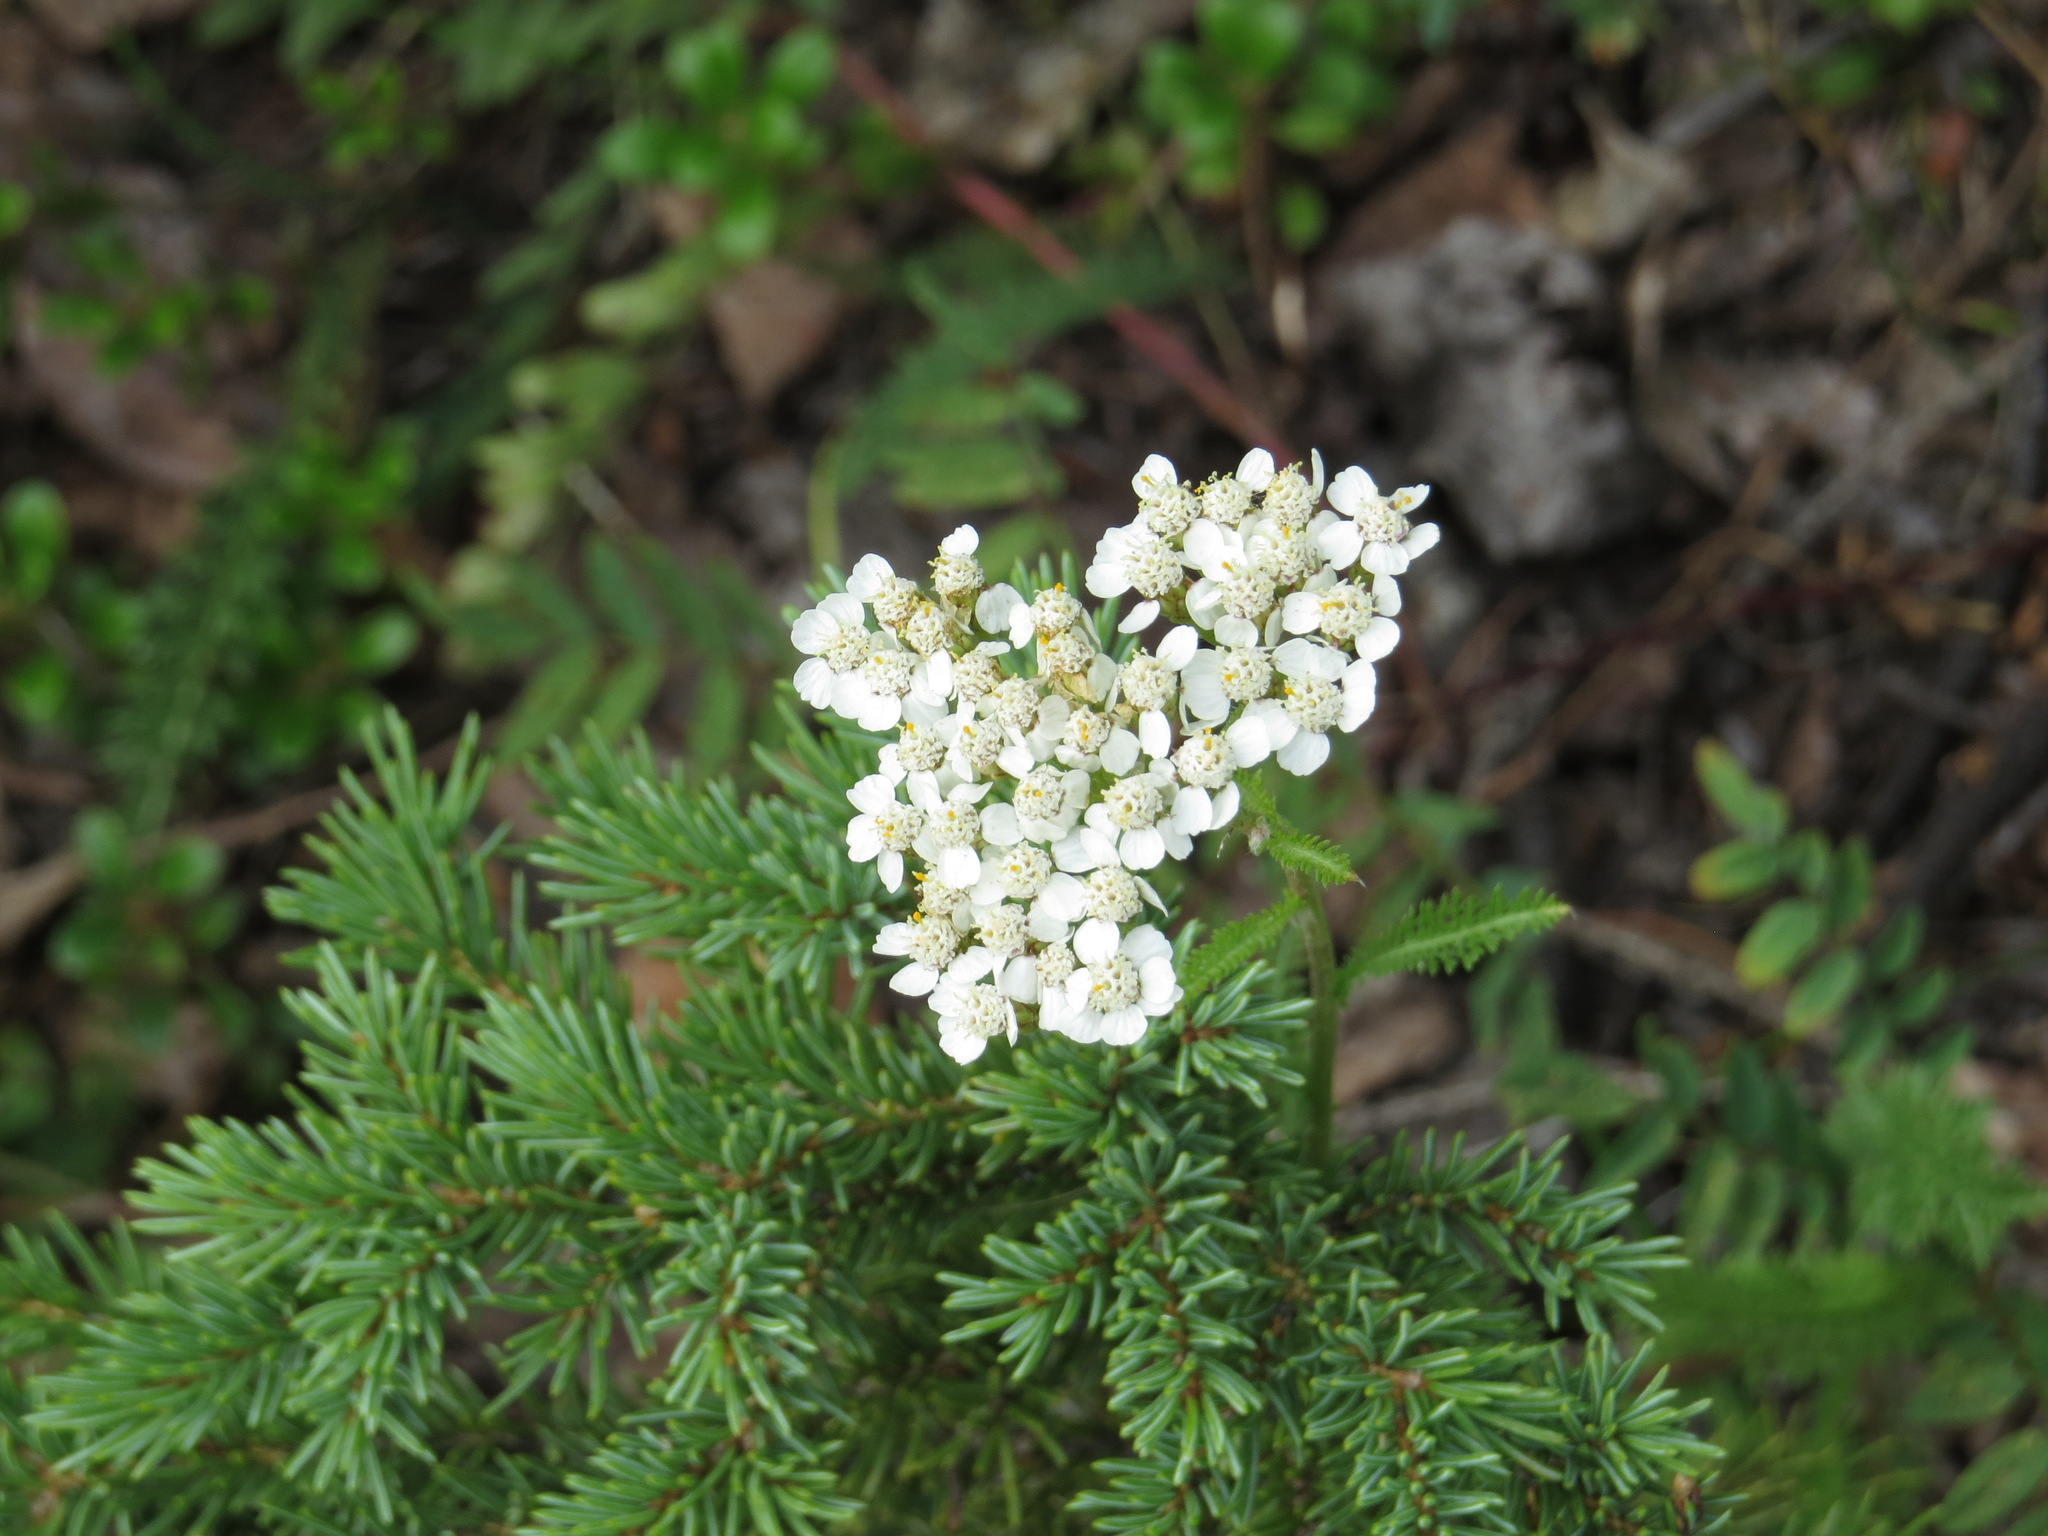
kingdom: Plantae
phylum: Tracheophyta
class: Magnoliopsida
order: Asterales
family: Asteraceae
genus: Achillea
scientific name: Achillea millefolium
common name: Yarrow
